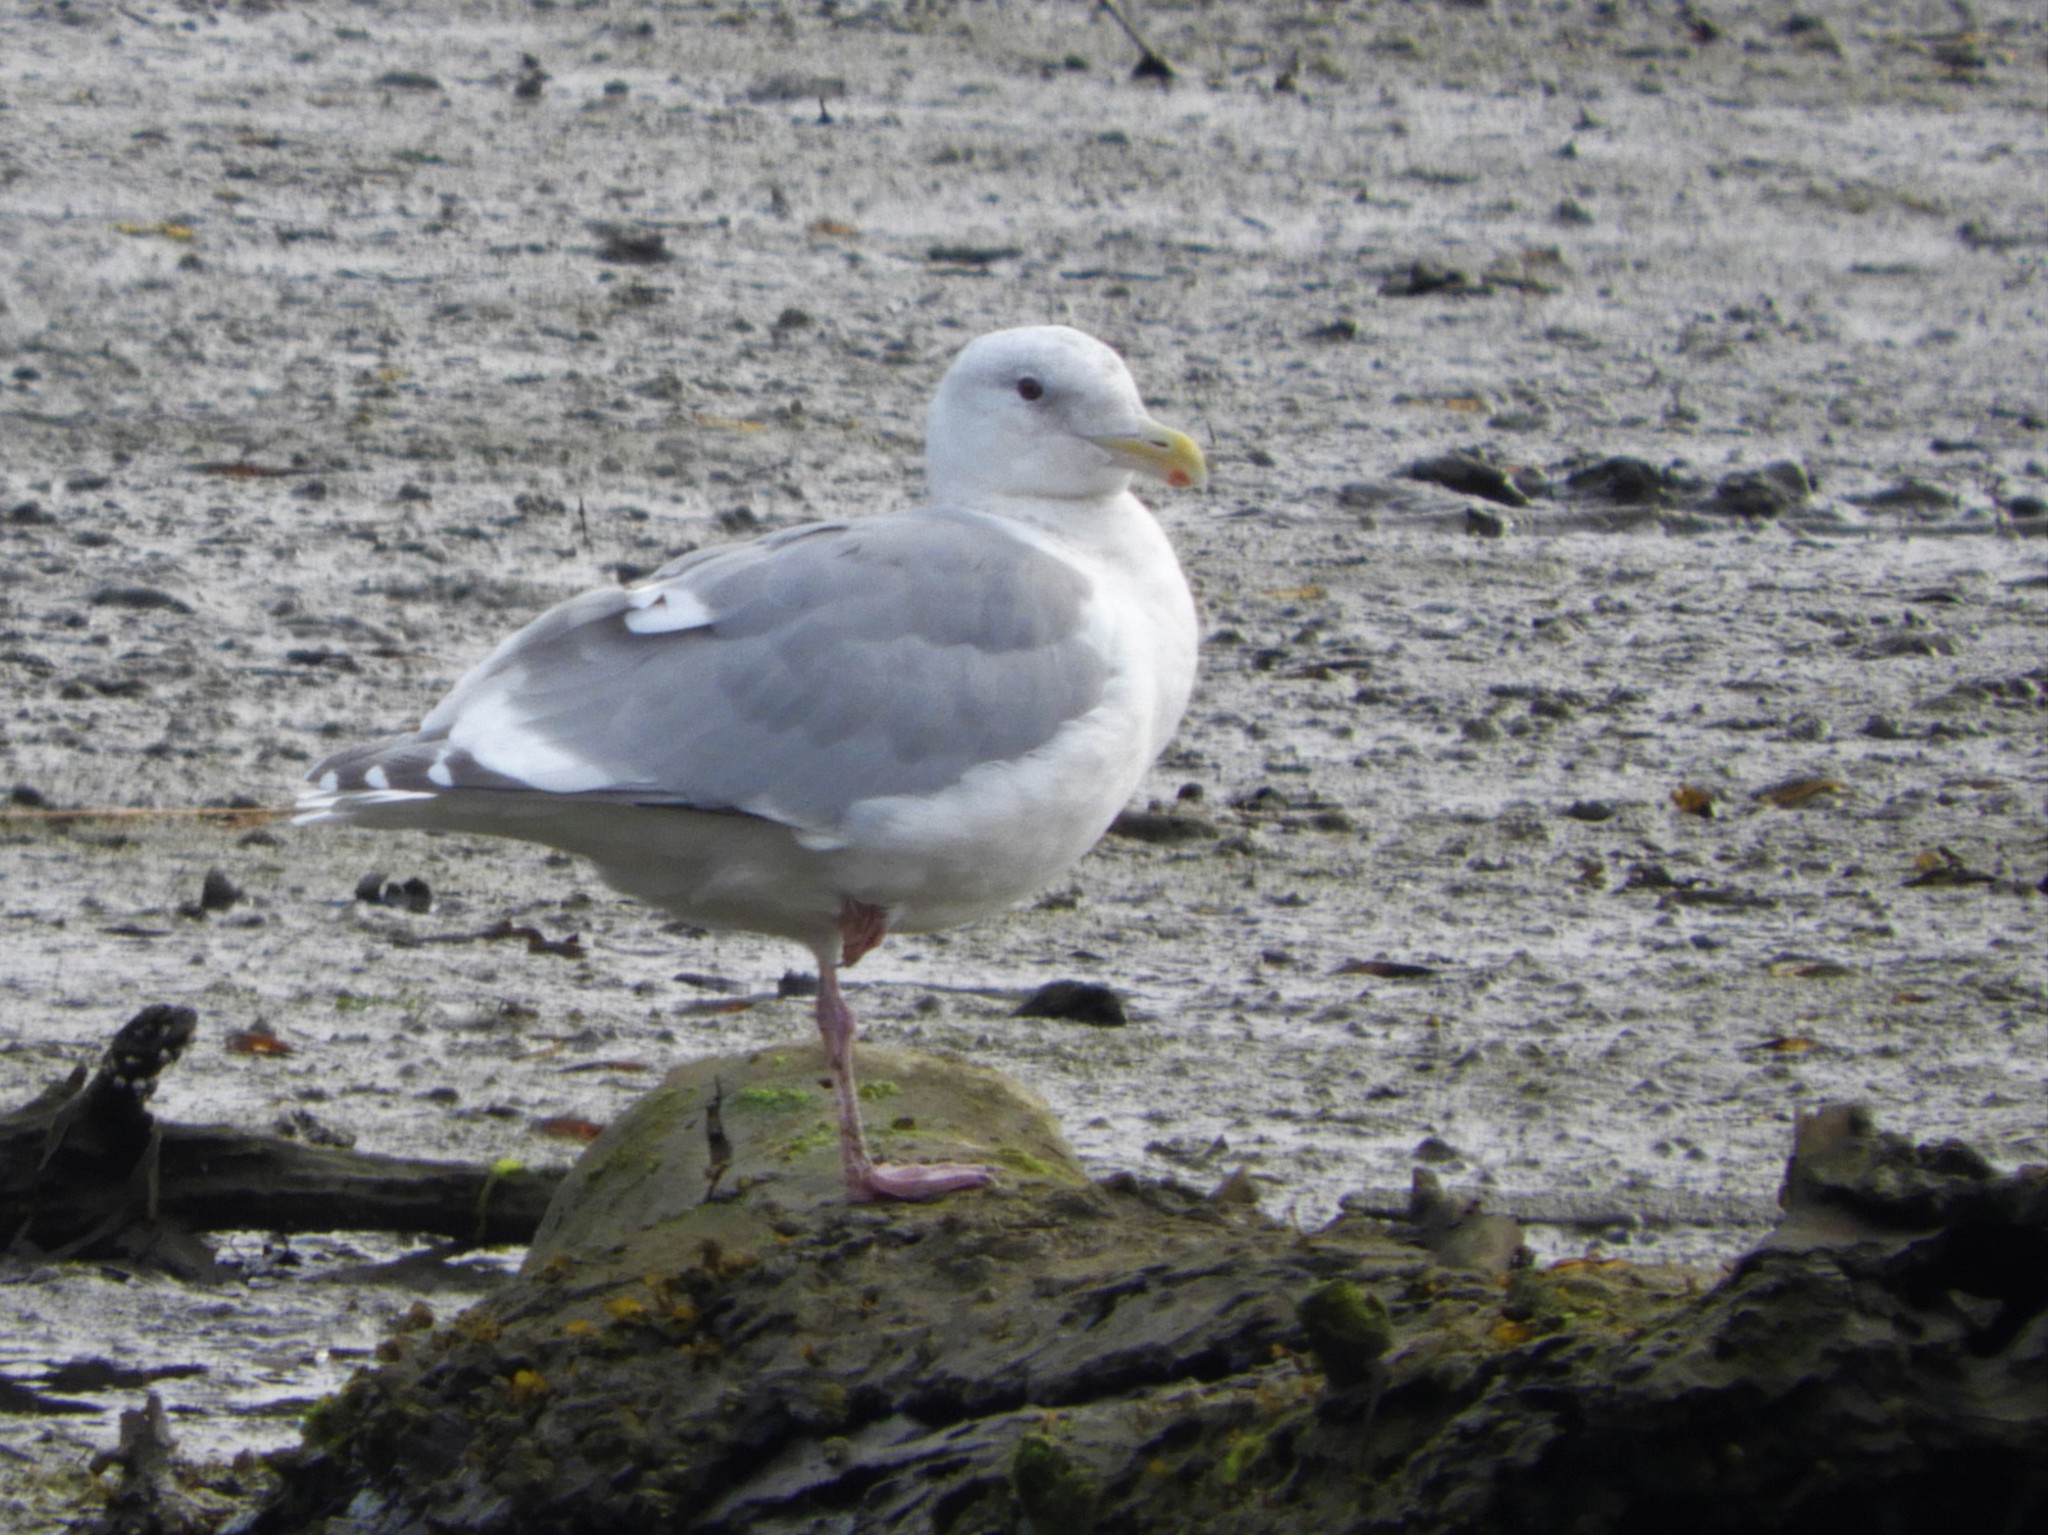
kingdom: Animalia
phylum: Chordata
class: Aves
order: Charadriiformes
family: Laridae
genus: Larus
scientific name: Larus glaucescens
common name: Glaucous-winged gull
